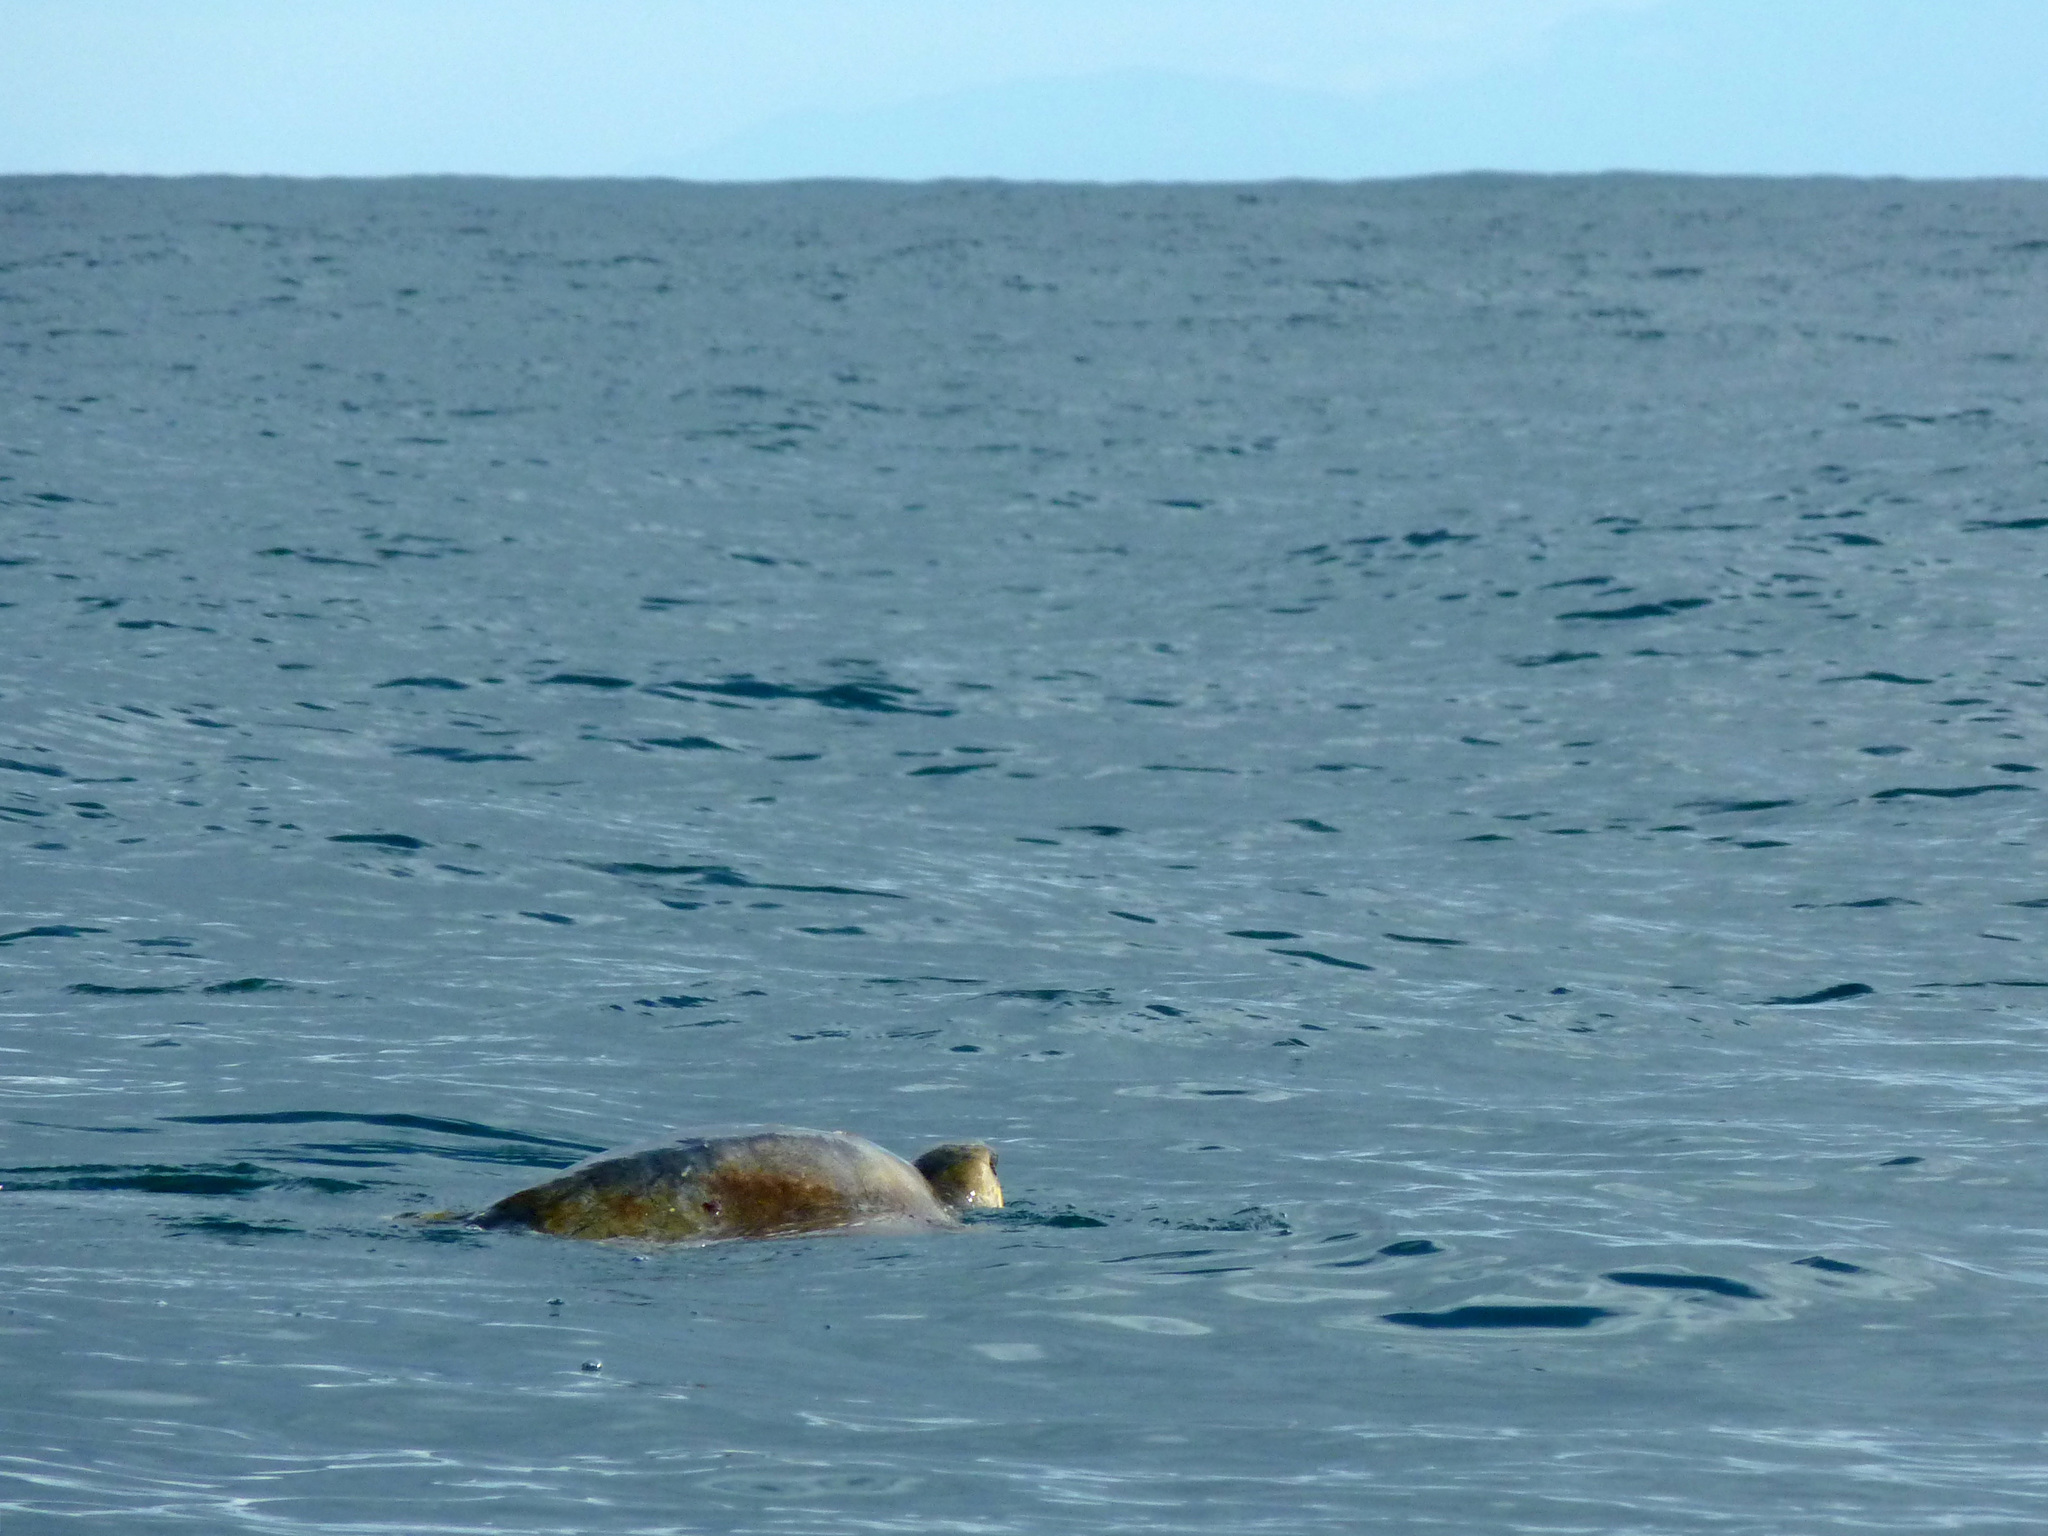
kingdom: Animalia
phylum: Chordata
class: Testudines
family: Cheloniidae
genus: Lepidochelys
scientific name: Lepidochelys olivacea
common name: Olive ridley
